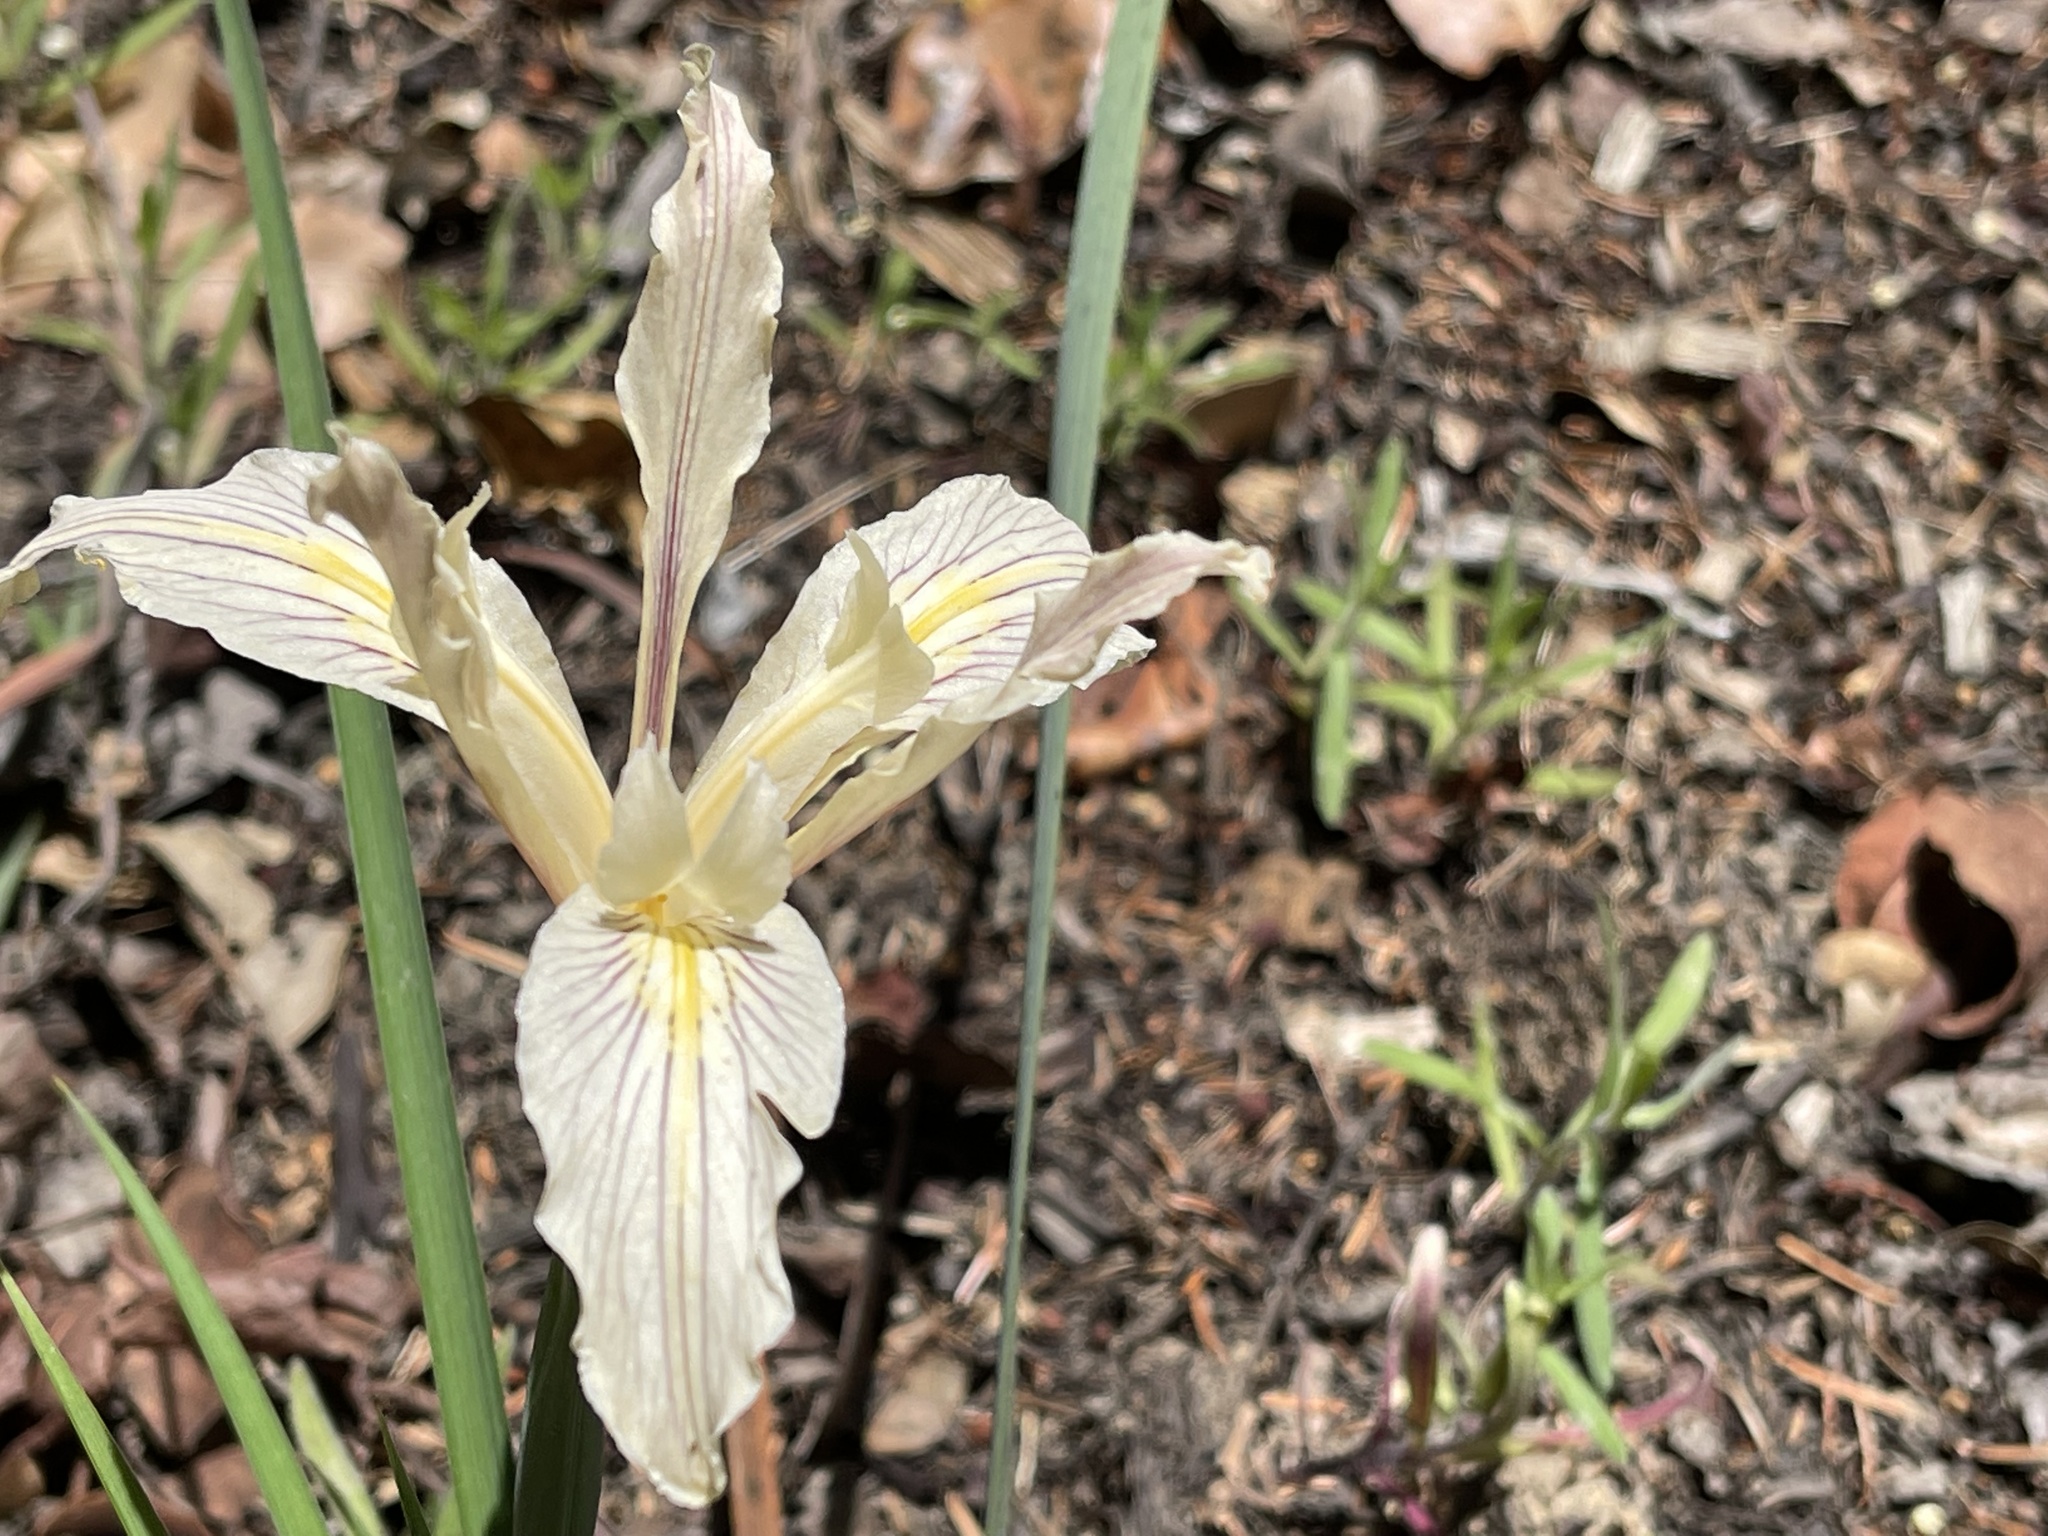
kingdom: Plantae
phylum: Tracheophyta
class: Liliopsida
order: Asparagales
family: Iridaceae
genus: Iris
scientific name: Iris fernaldii
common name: Fernald's iris
